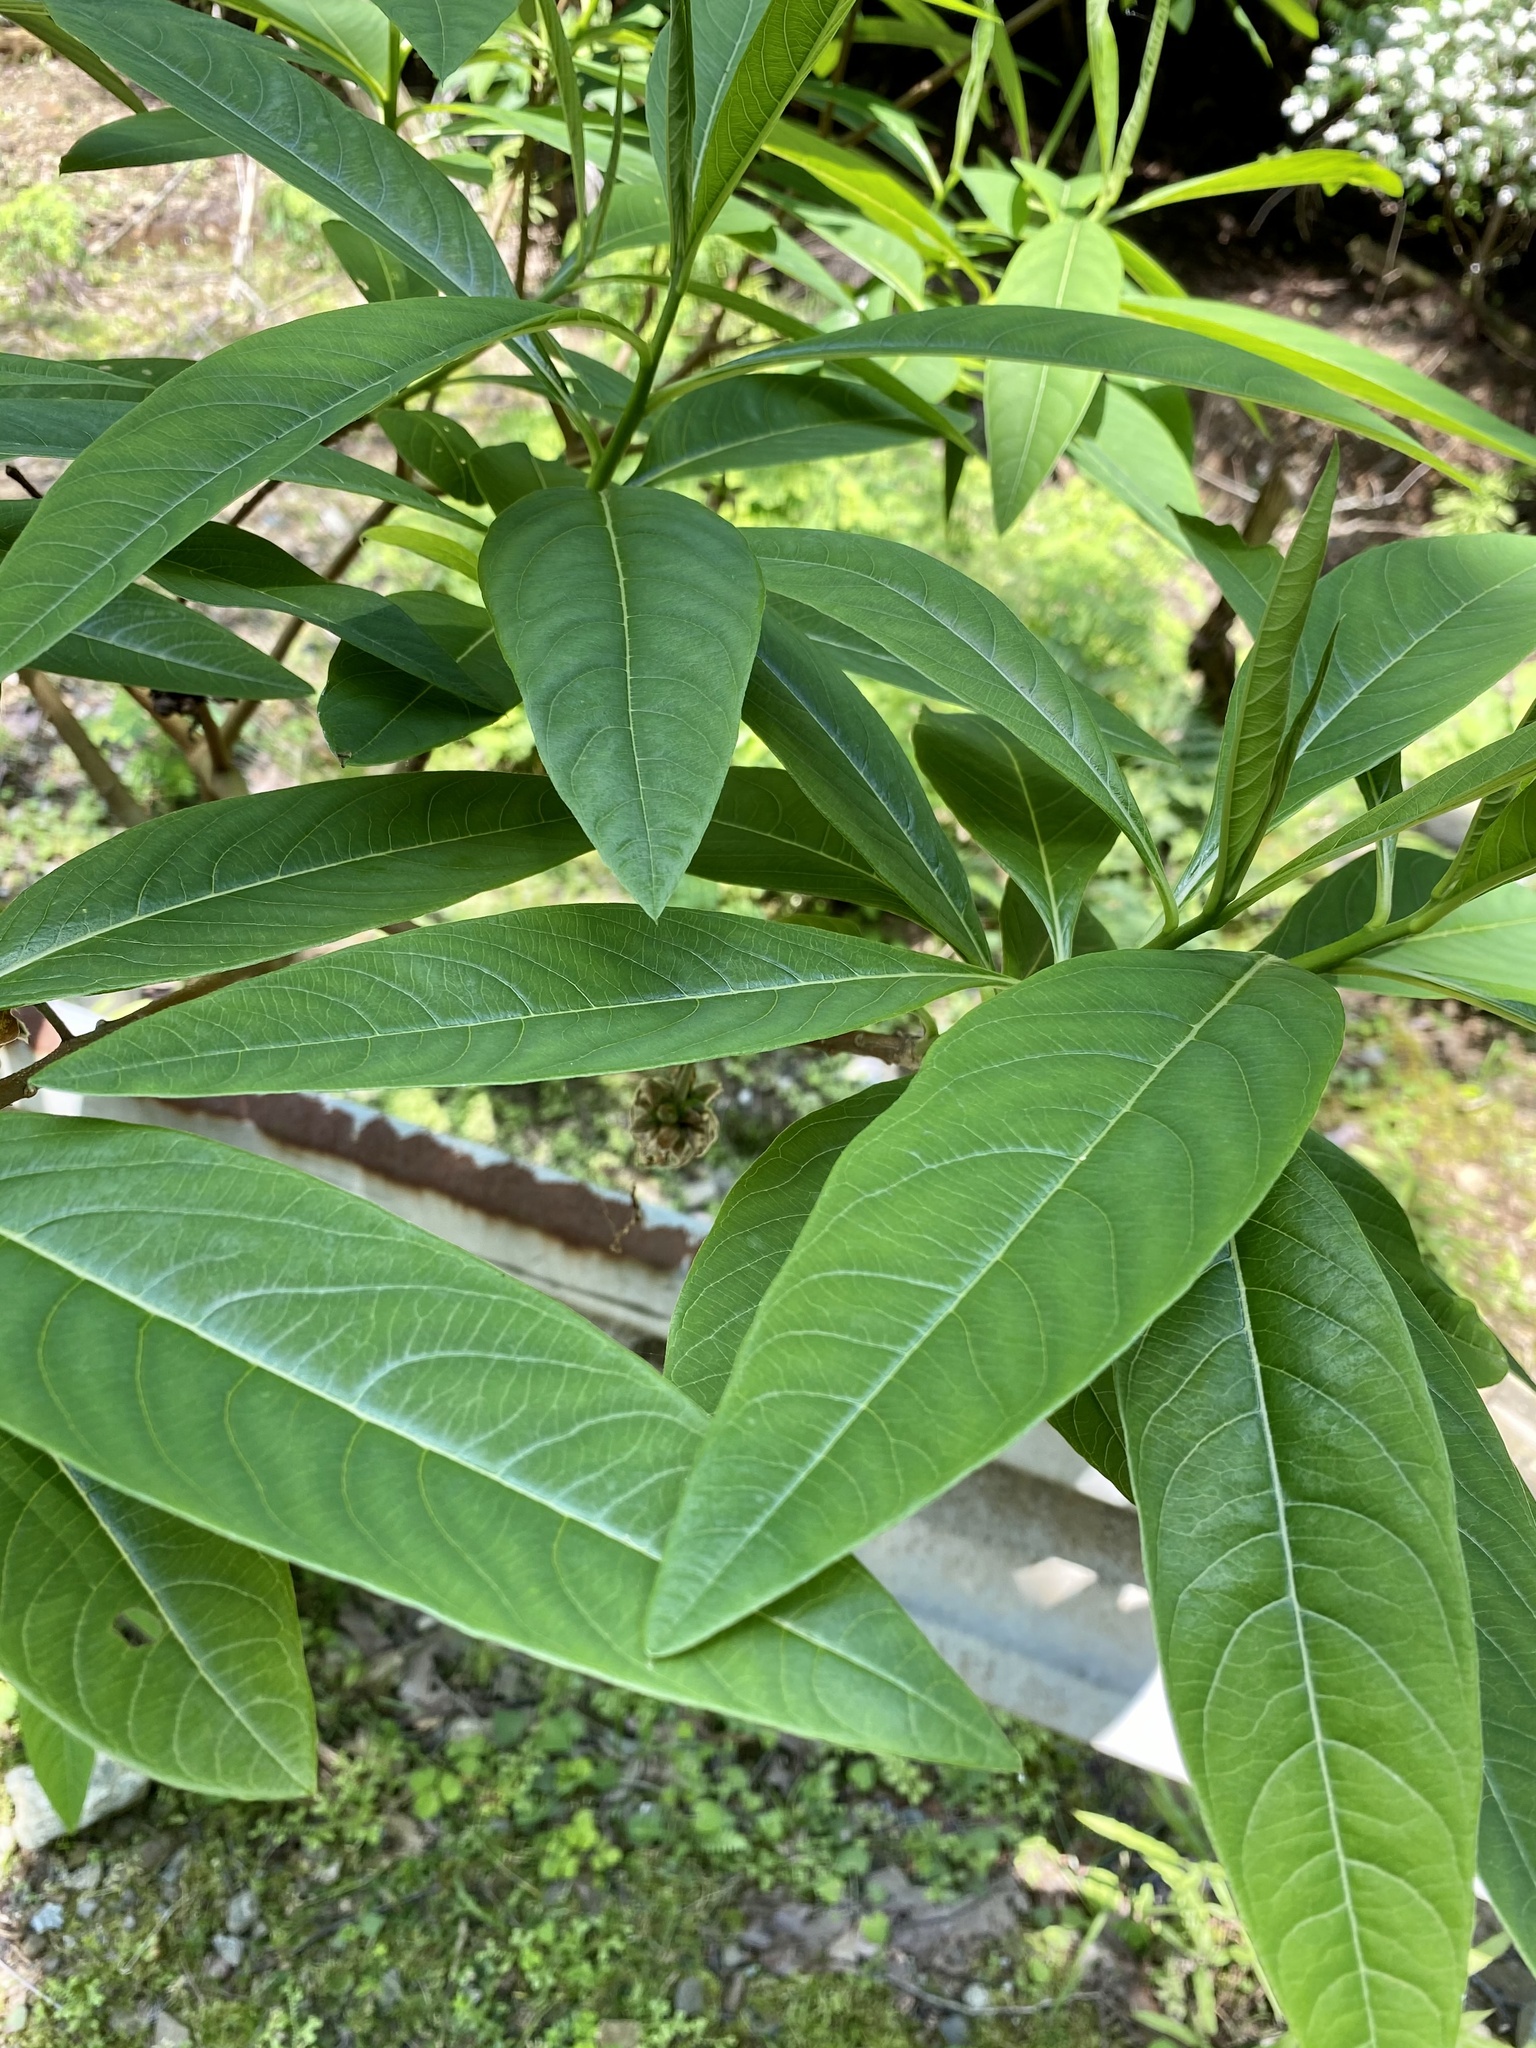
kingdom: Plantae
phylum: Tracheophyta
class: Magnoliopsida
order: Malvales
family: Thymelaeaceae
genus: Edgeworthia
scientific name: Edgeworthia chrysantha
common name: Oriental paperbush
